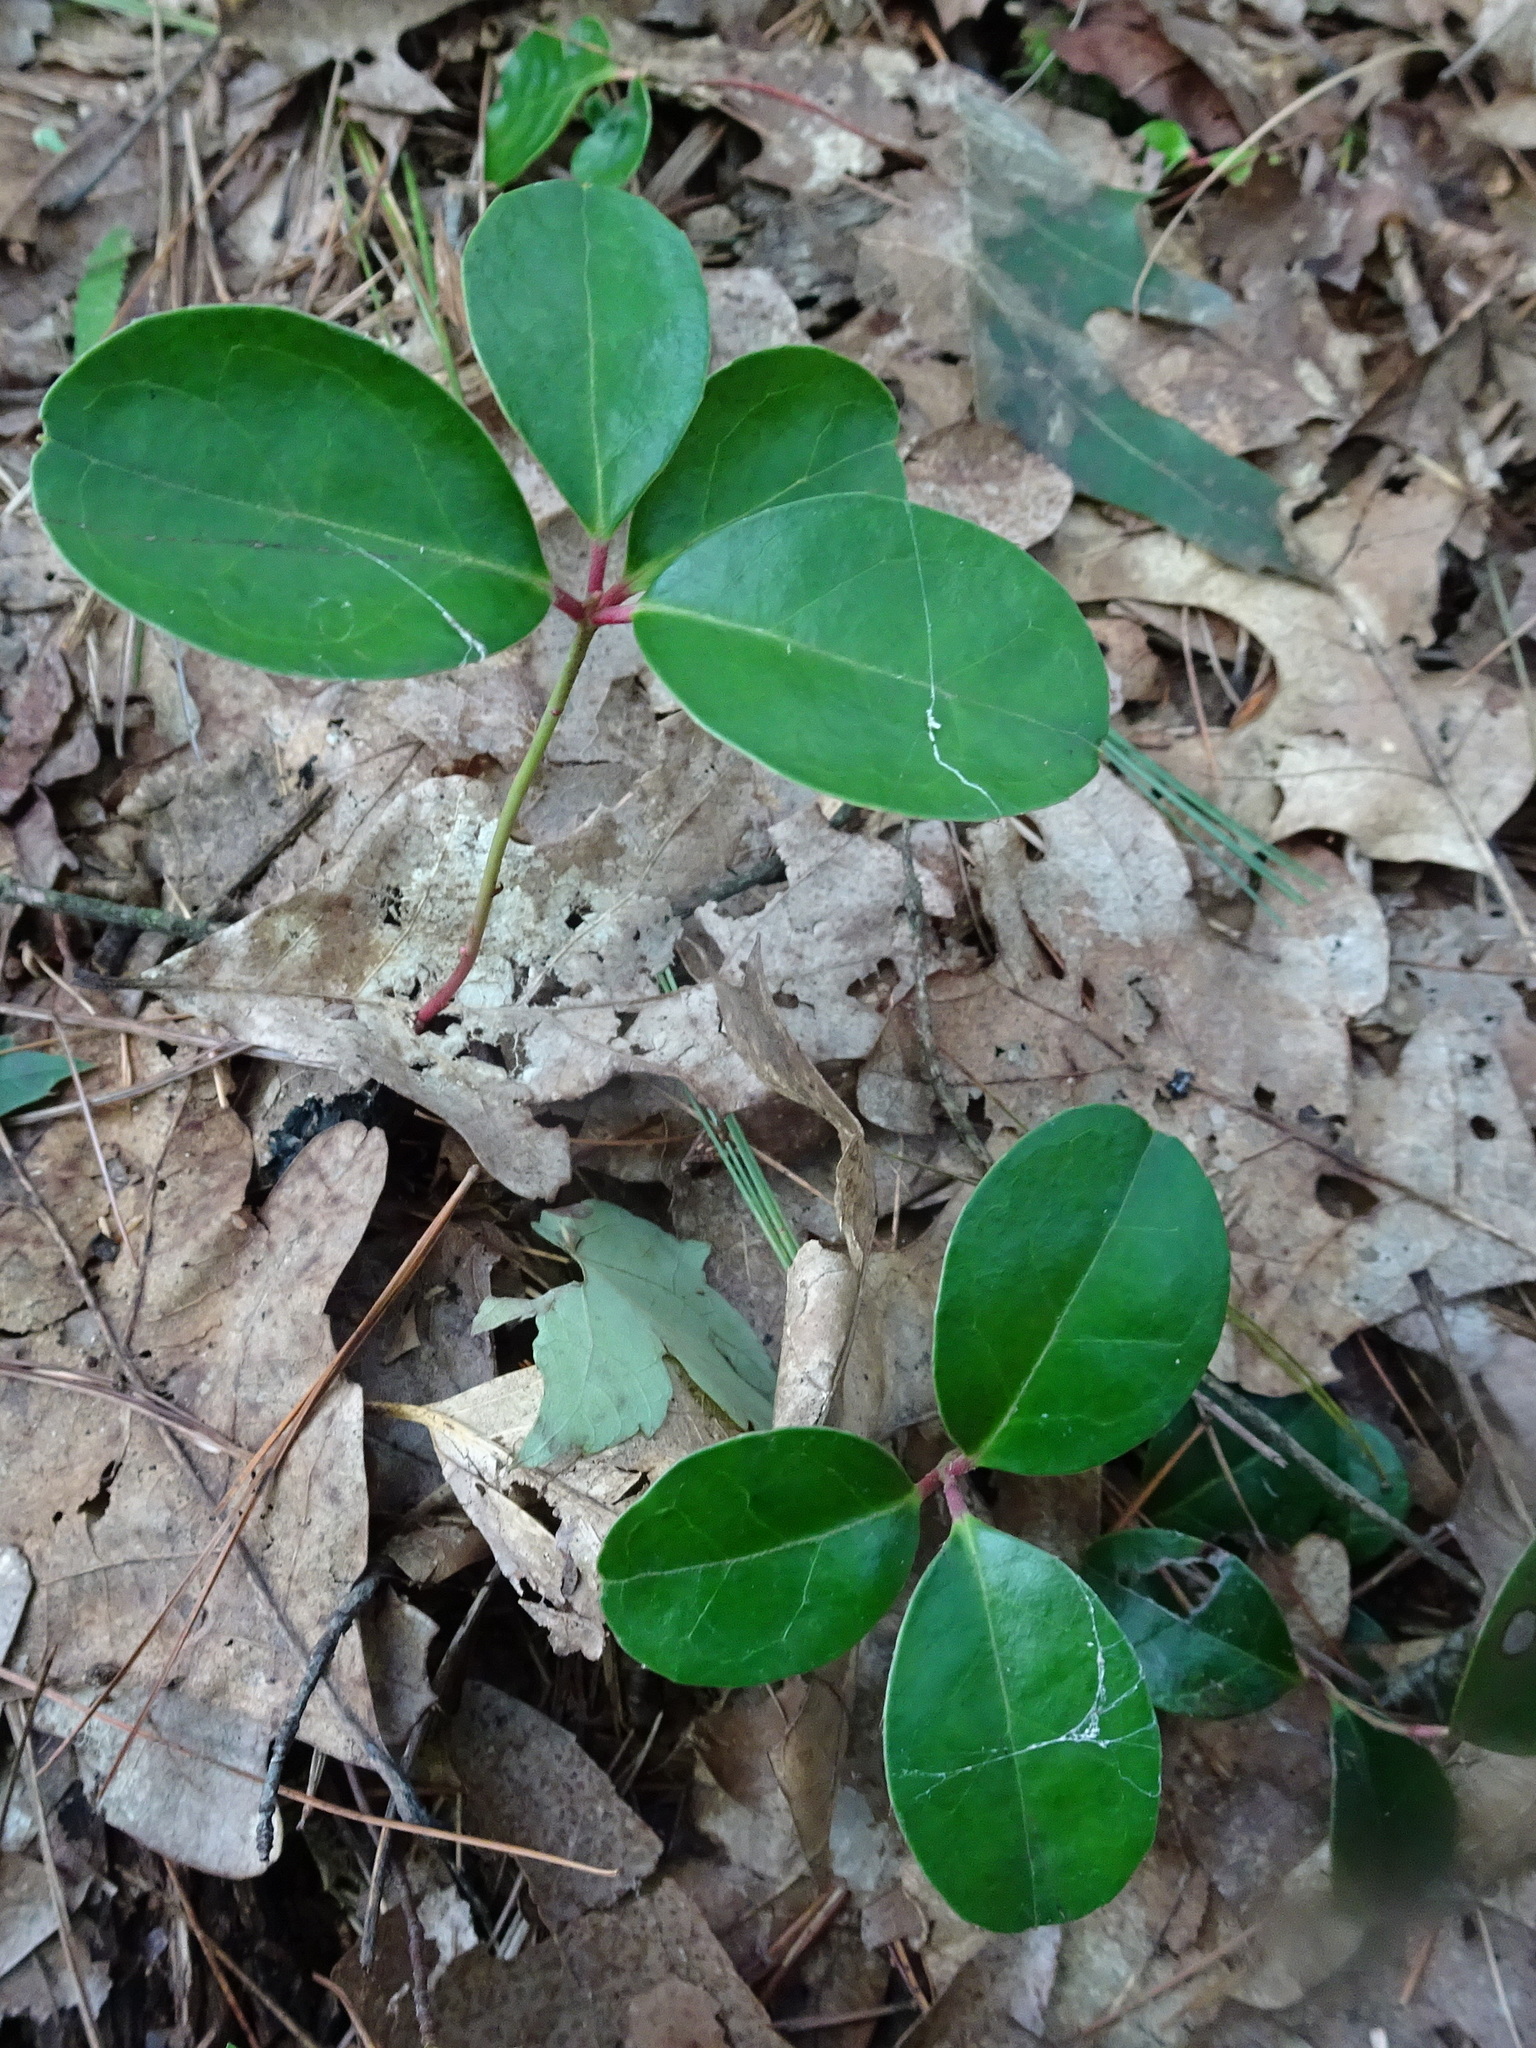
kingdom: Plantae
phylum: Tracheophyta
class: Magnoliopsida
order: Ericales
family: Ericaceae
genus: Gaultheria
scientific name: Gaultheria procumbens
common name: Checkerberry
